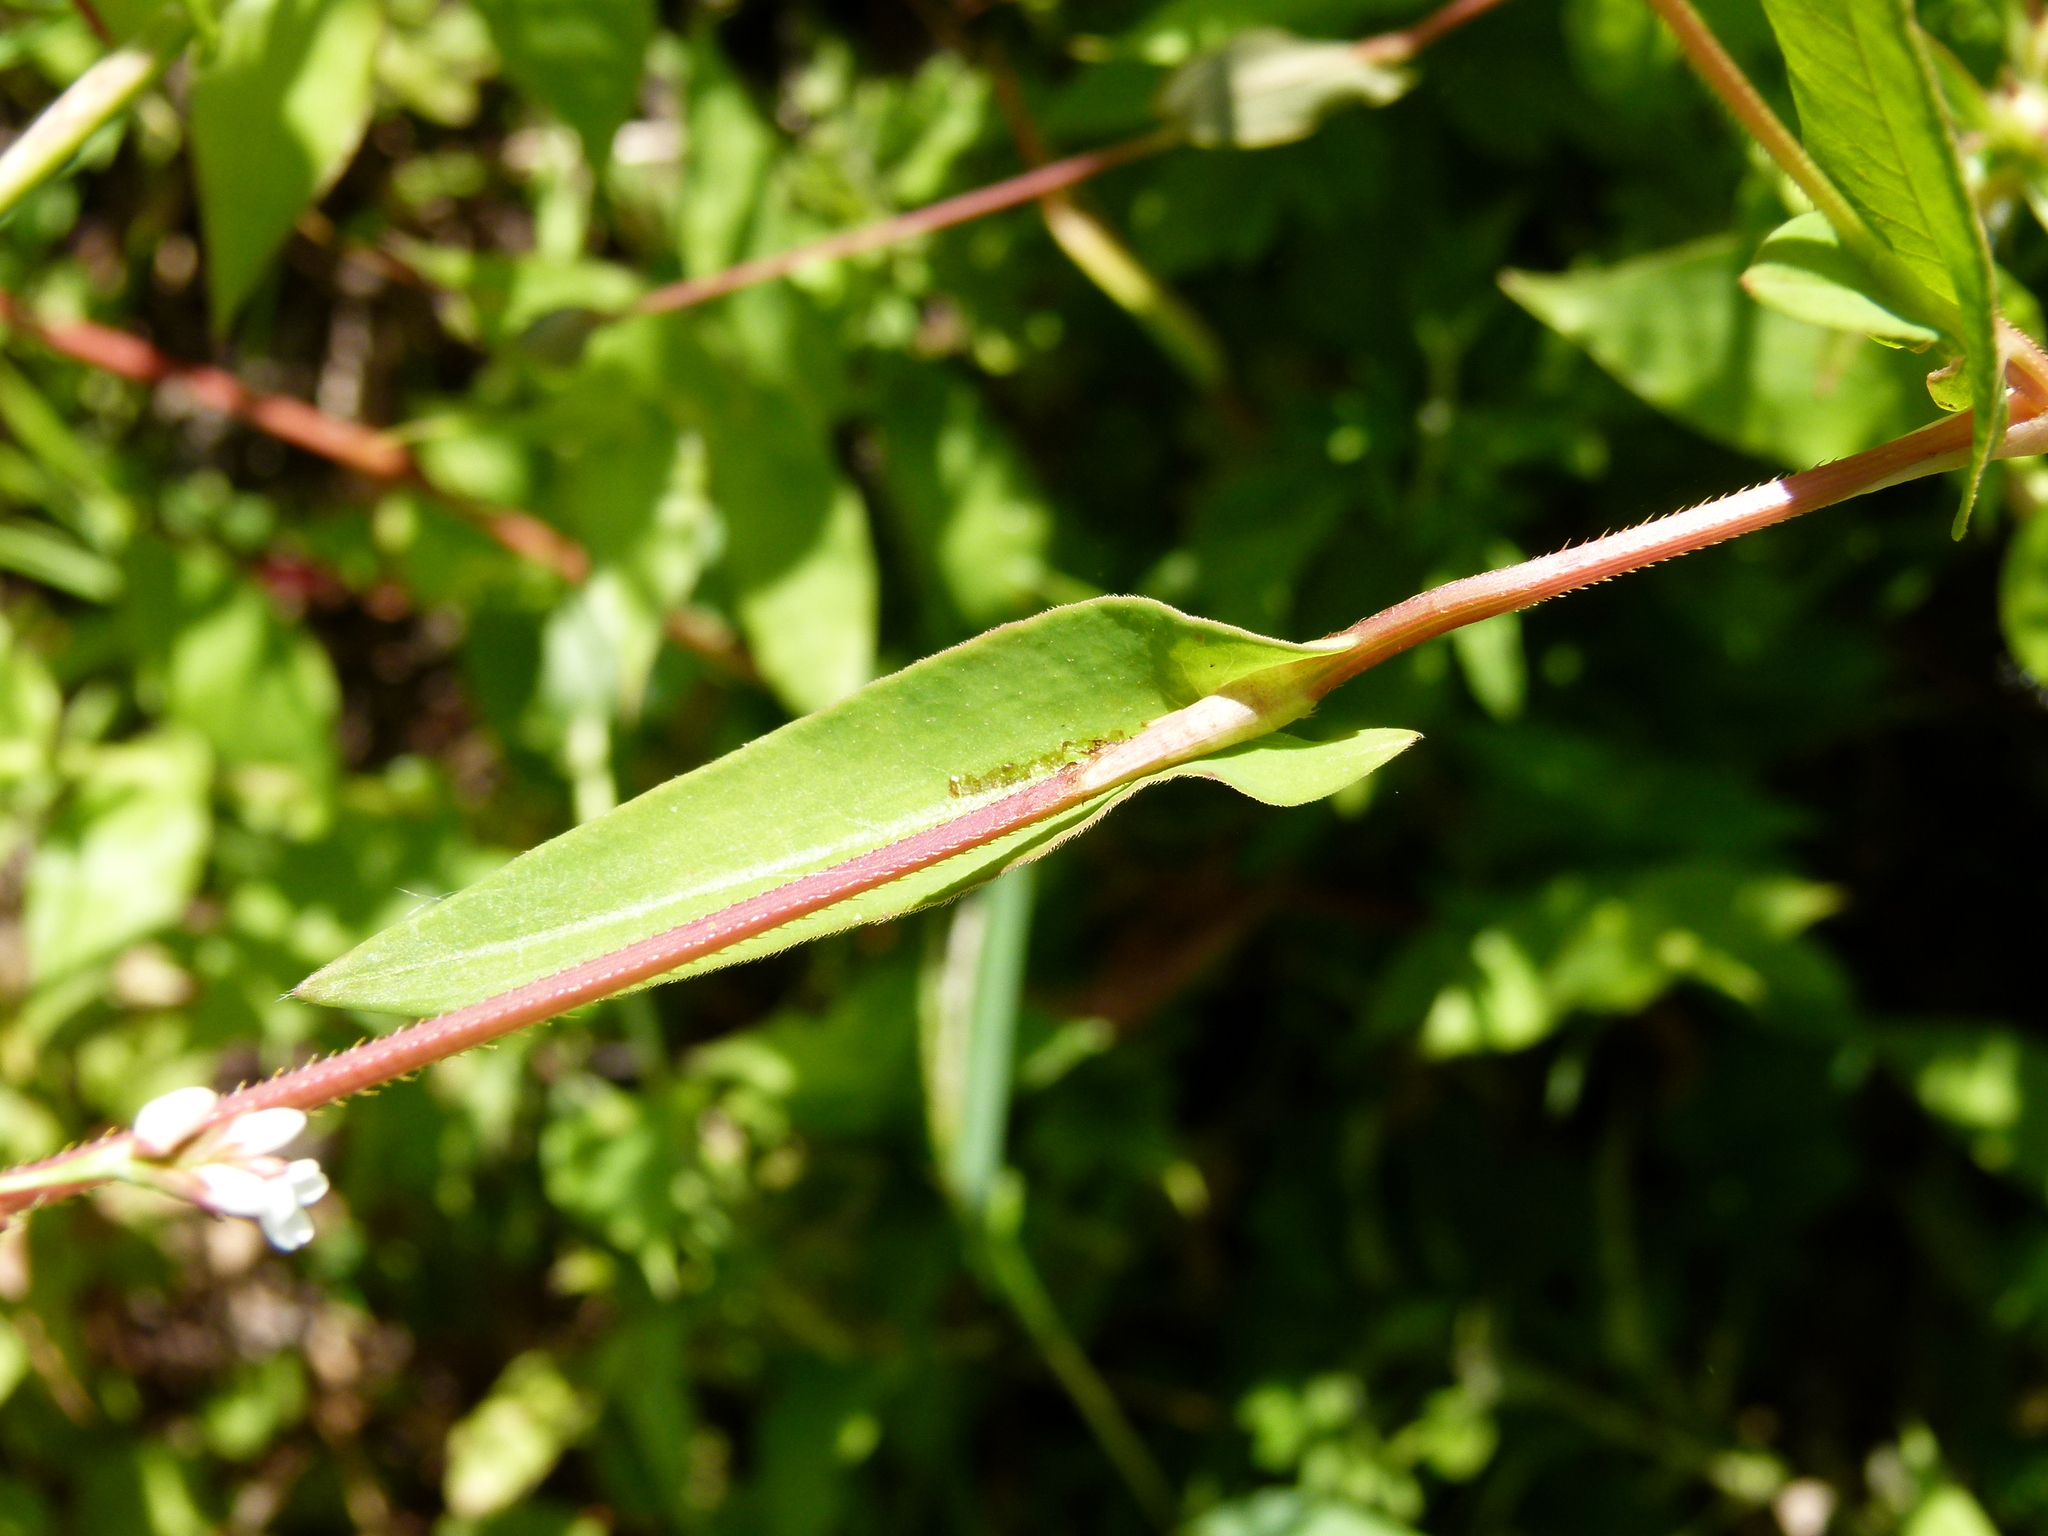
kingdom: Plantae
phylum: Tracheophyta
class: Magnoliopsida
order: Caryophyllales
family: Polygonaceae
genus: Persicaria
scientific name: Persicaria sagittata
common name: American tearthumb
